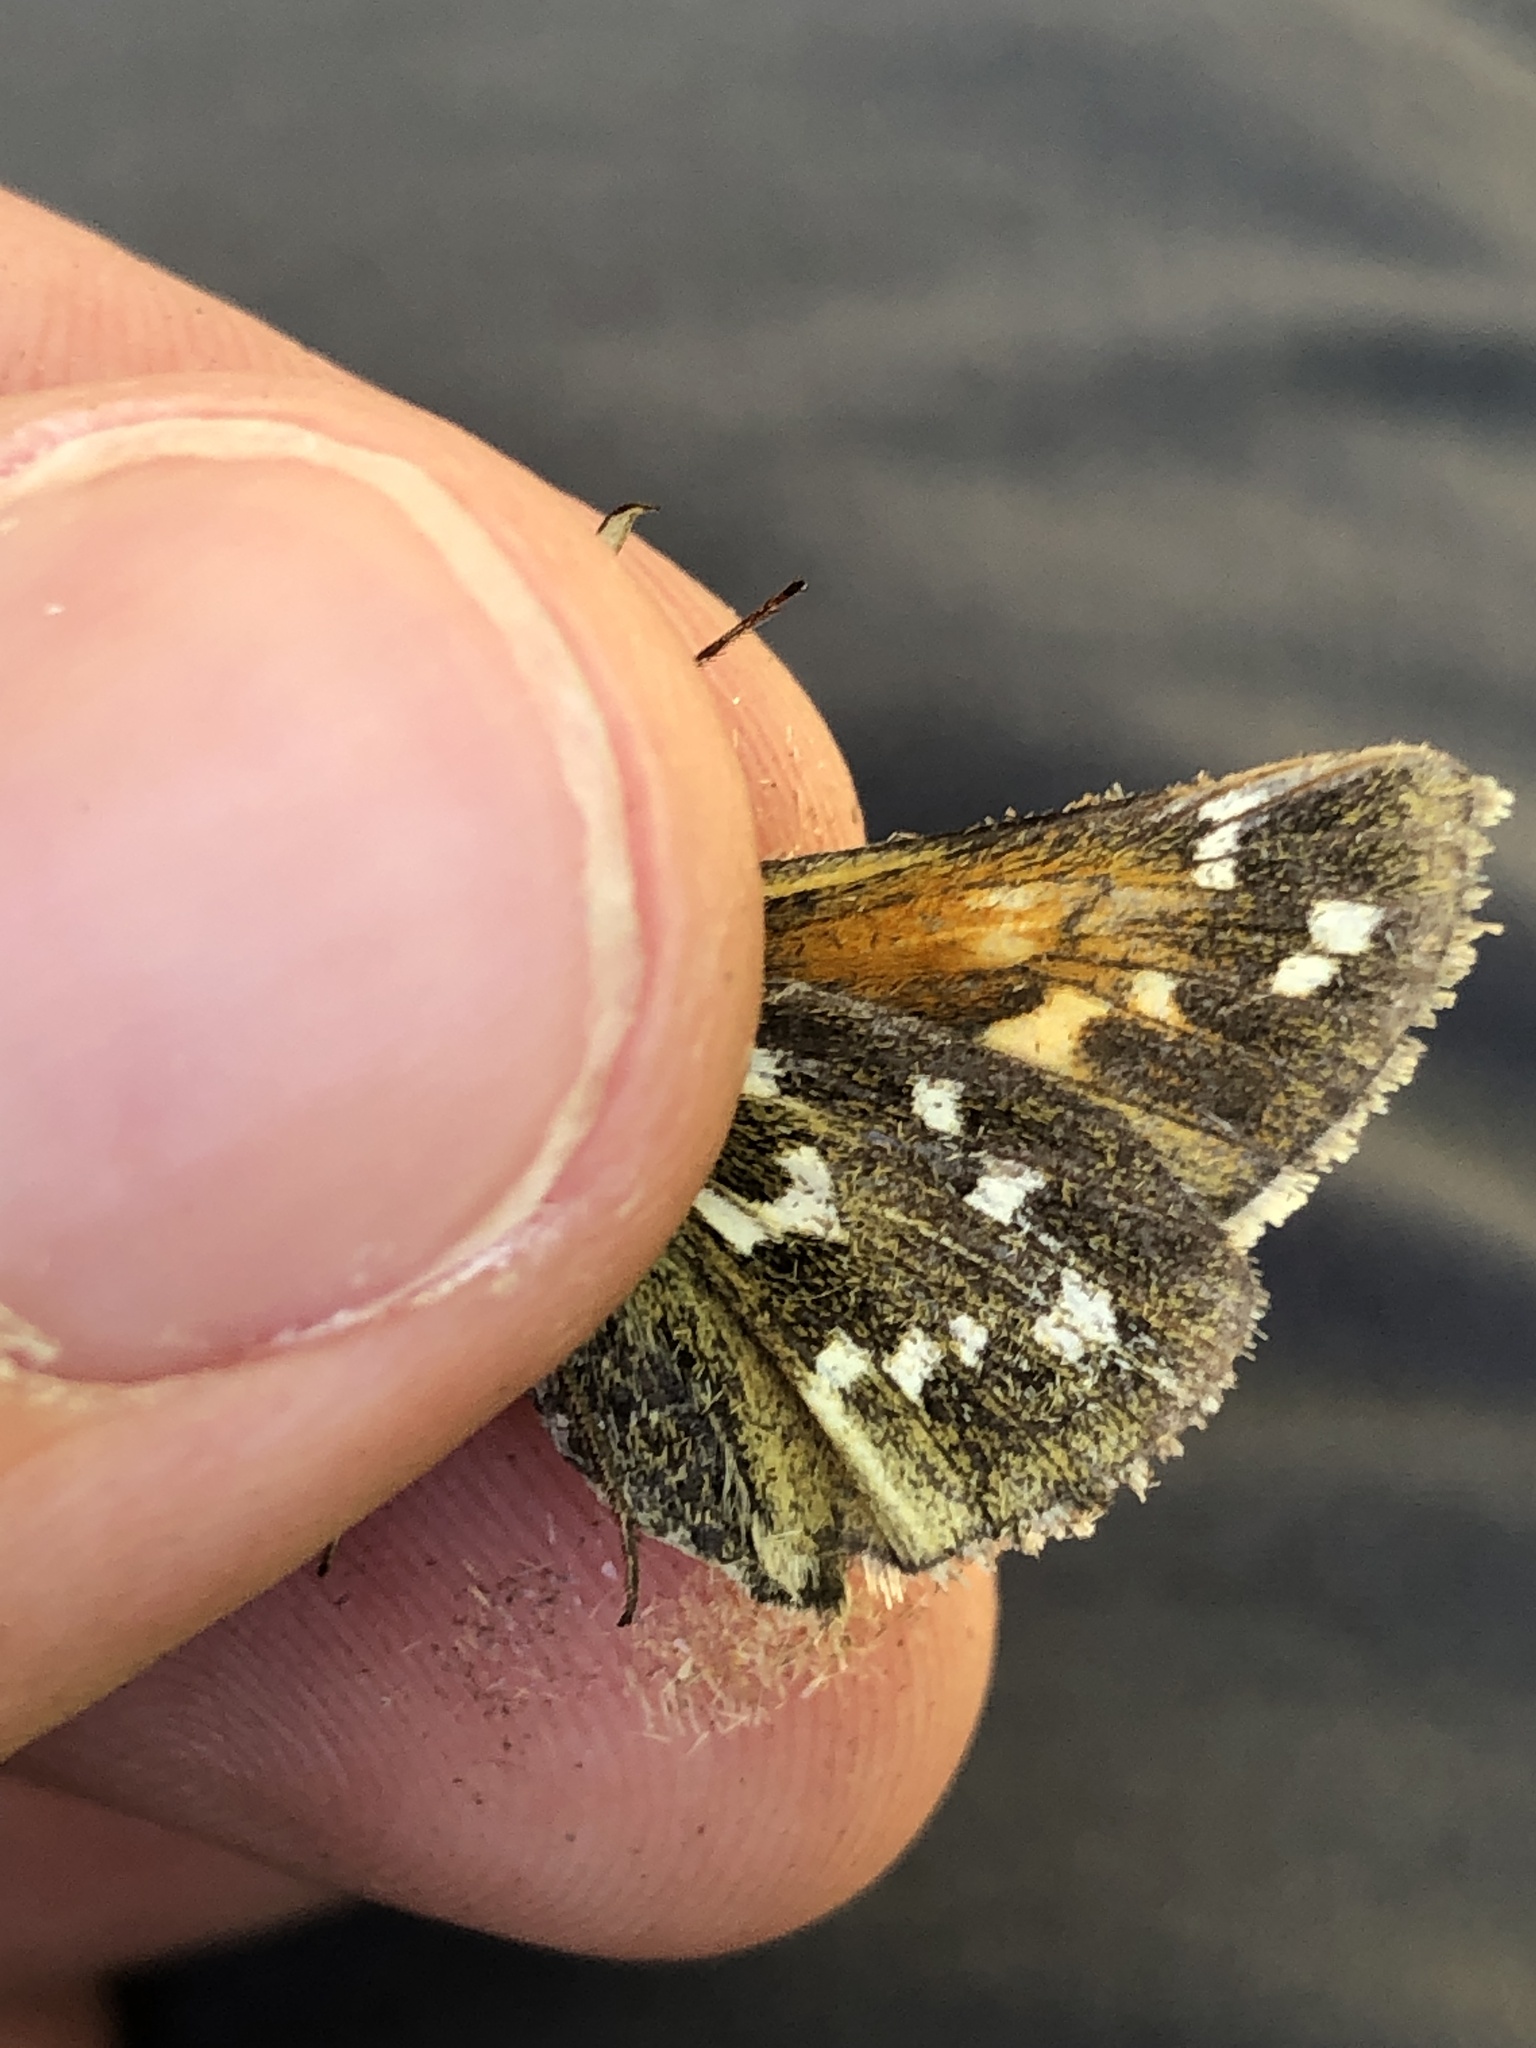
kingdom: Animalia
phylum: Arthropoda
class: Insecta
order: Lepidoptera
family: Hesperiidae
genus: Hesperia
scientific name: Hesperia comma
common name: Common branded skipper
